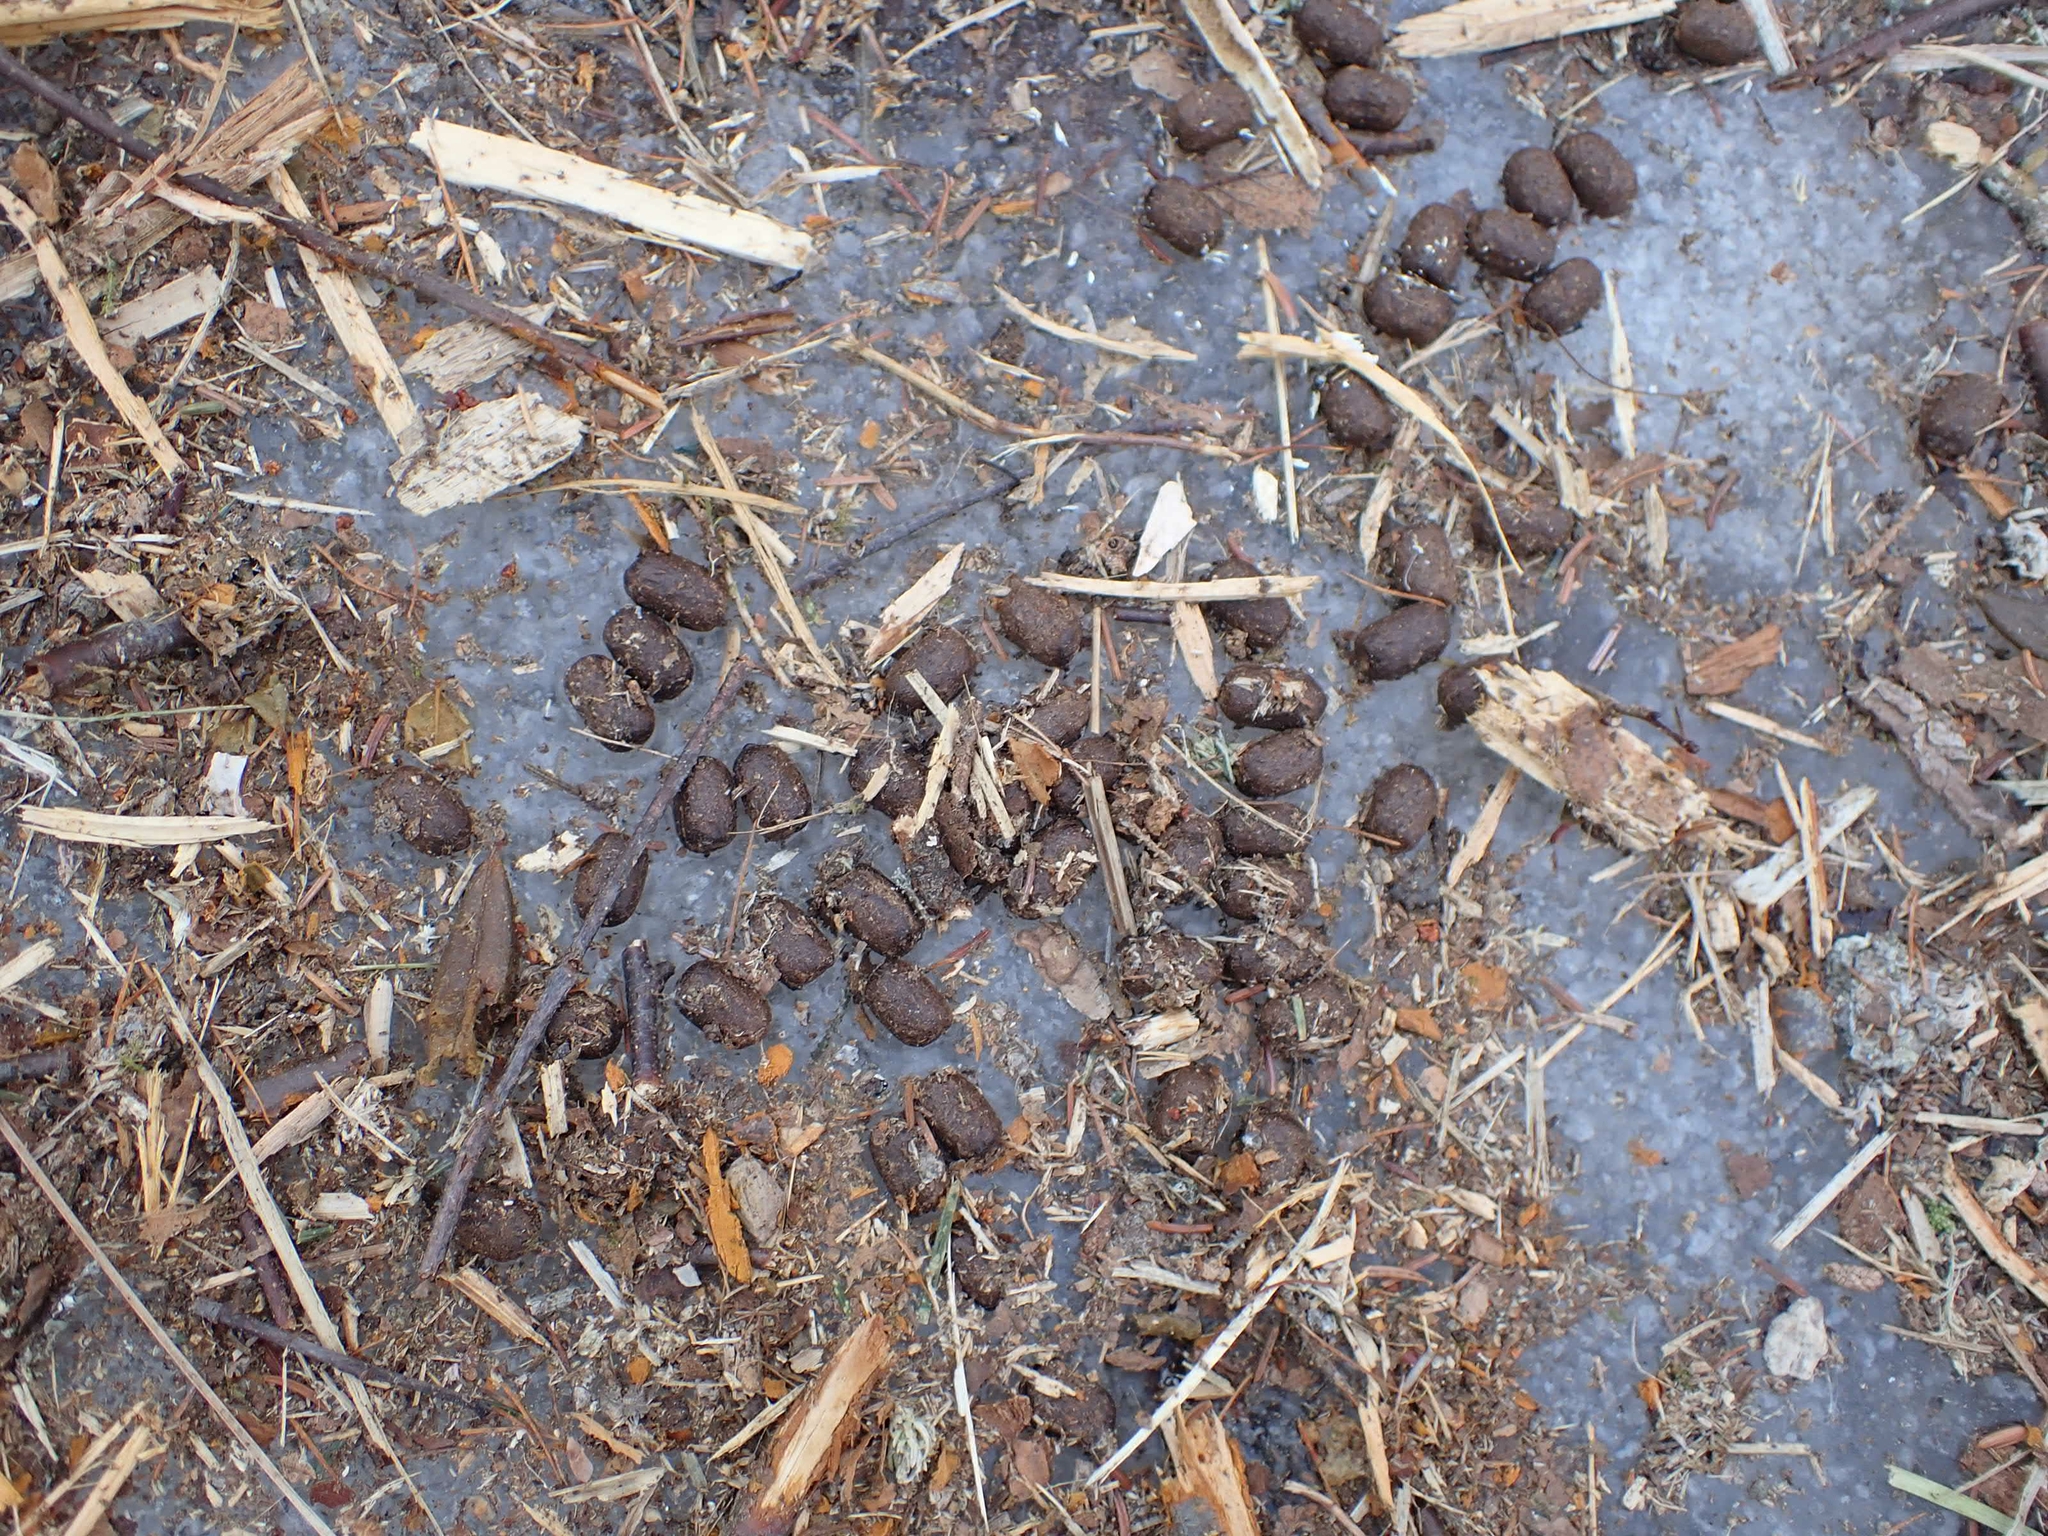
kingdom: Animalia
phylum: Chordata
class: Mammalia
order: Artiodactyla
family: Cervidae
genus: Odocoileus
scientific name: Odocoileus virginianus
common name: White-tailed deer
